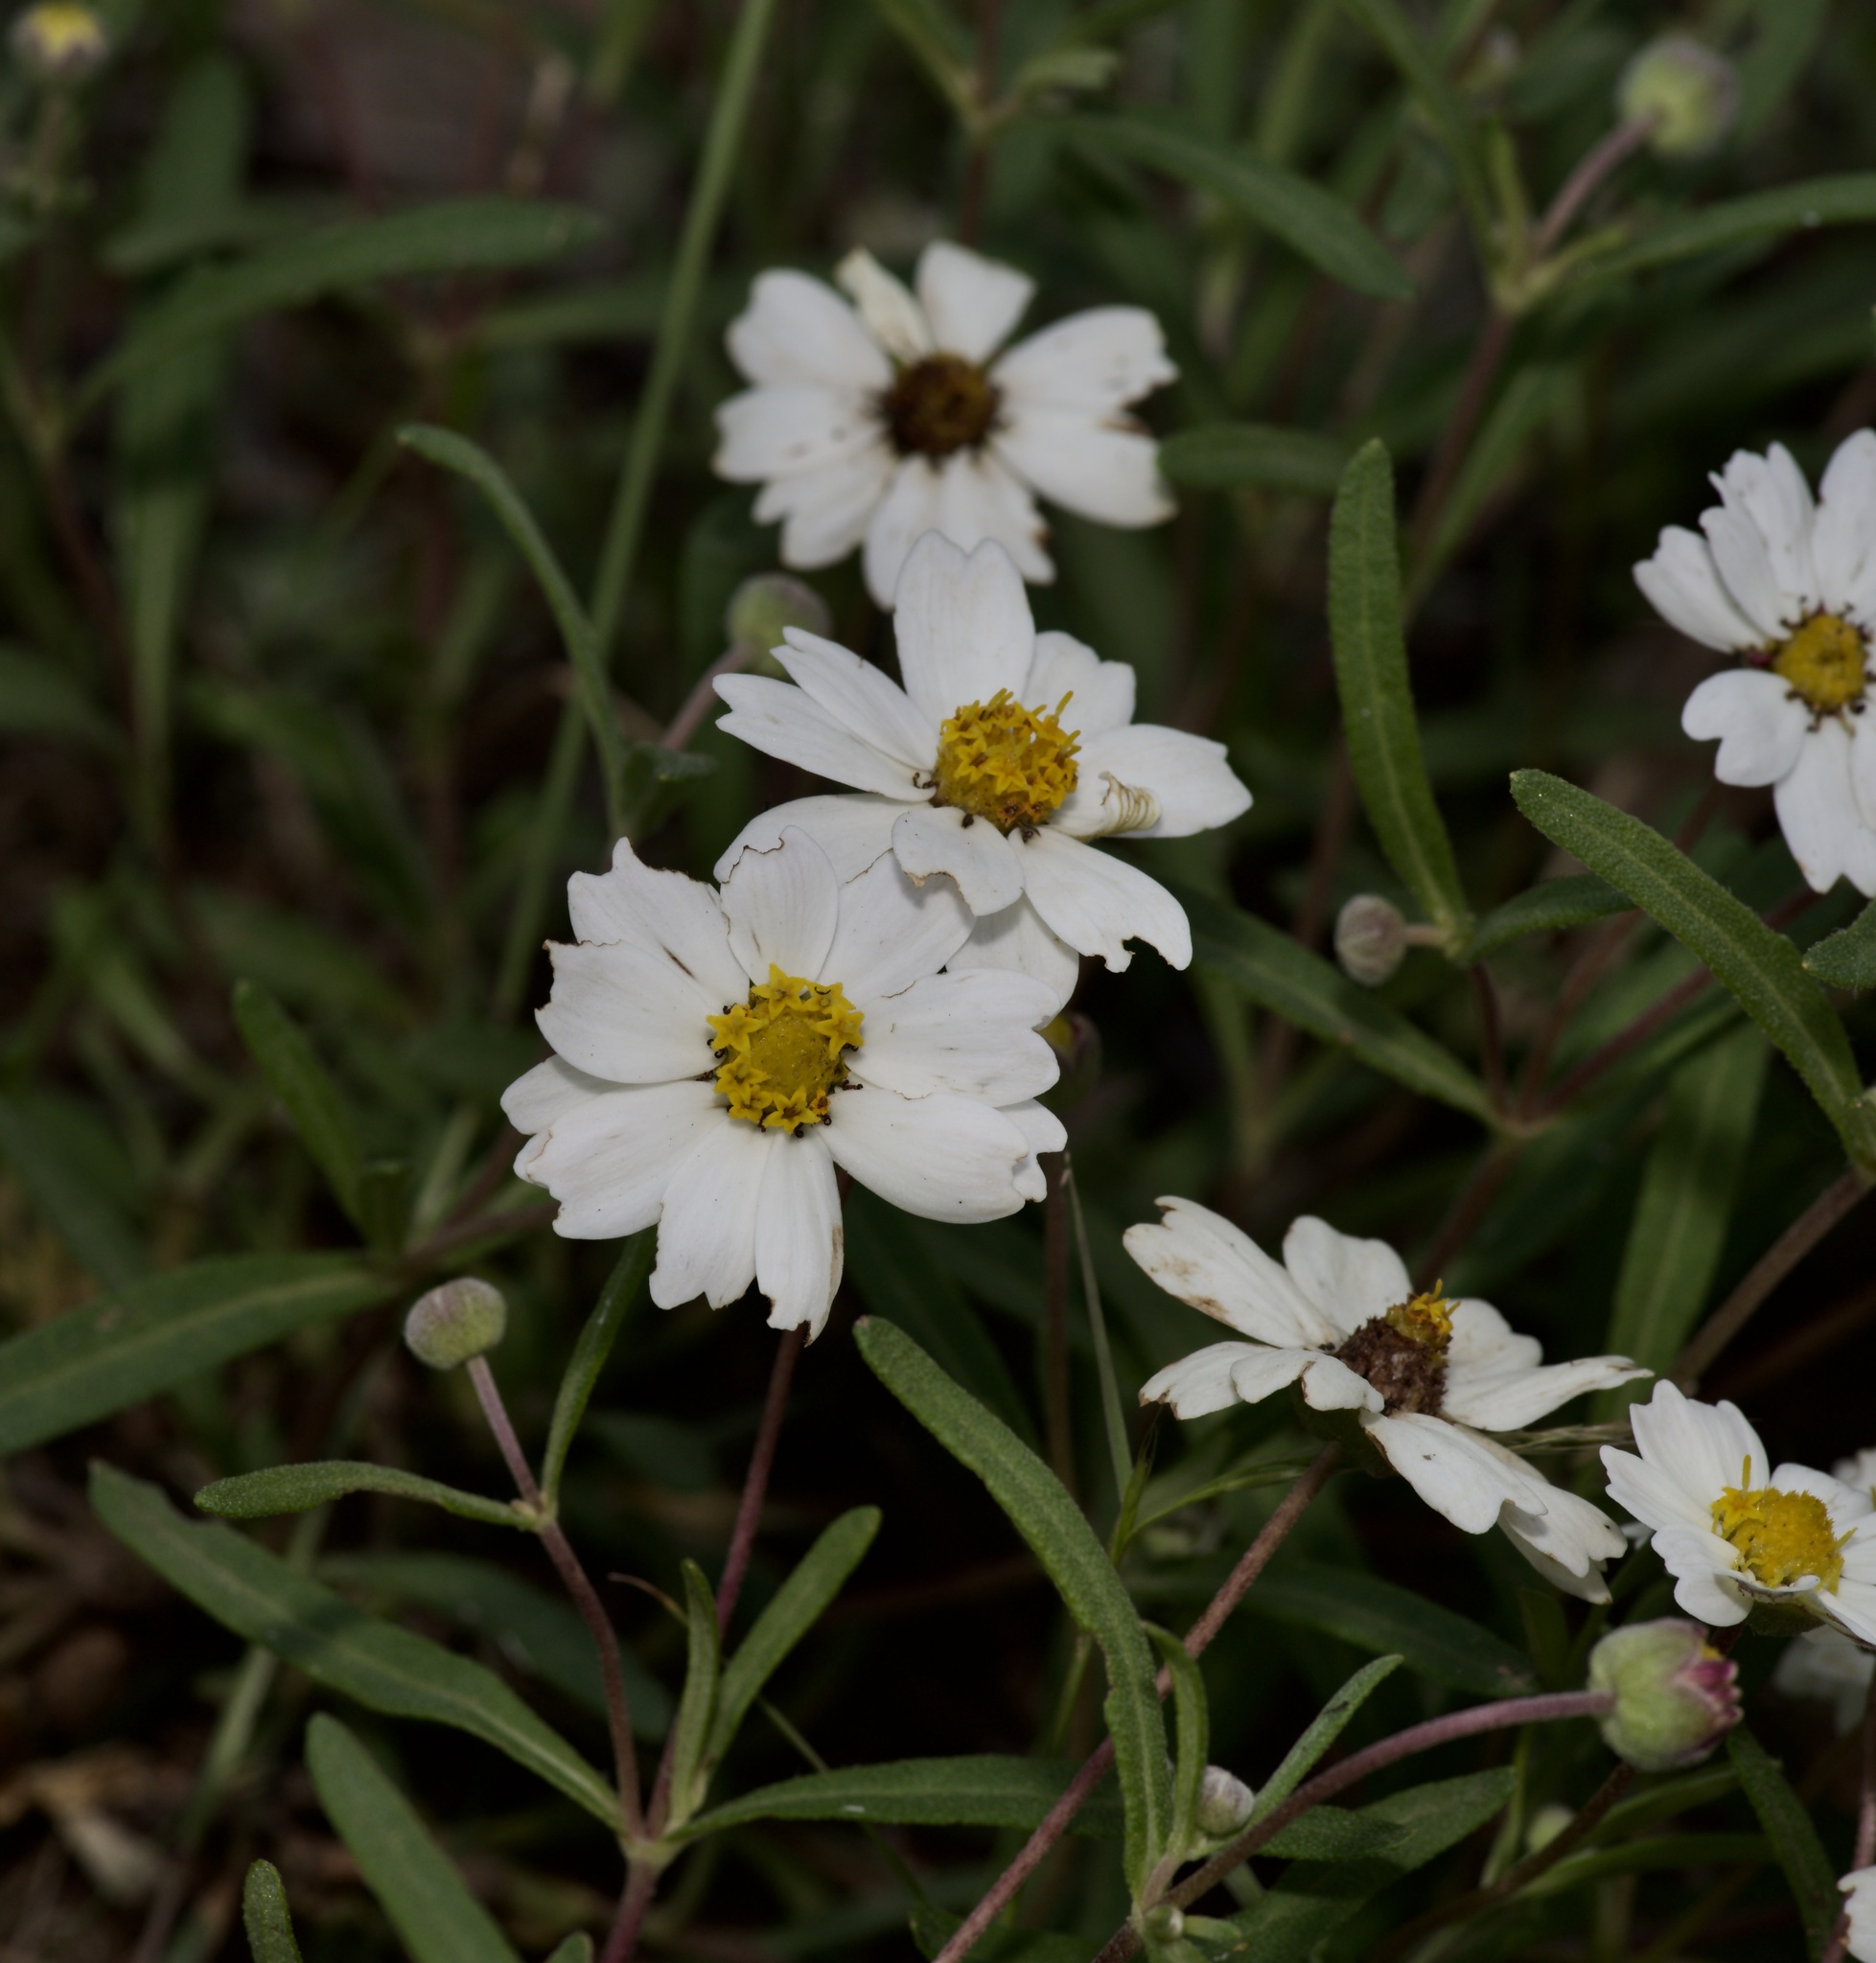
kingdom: Plantae
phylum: Tracheophyta
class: Magnoliopsida
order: Asterales
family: Asteraceae
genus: Melampodium
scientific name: Melampodium leucanthum
